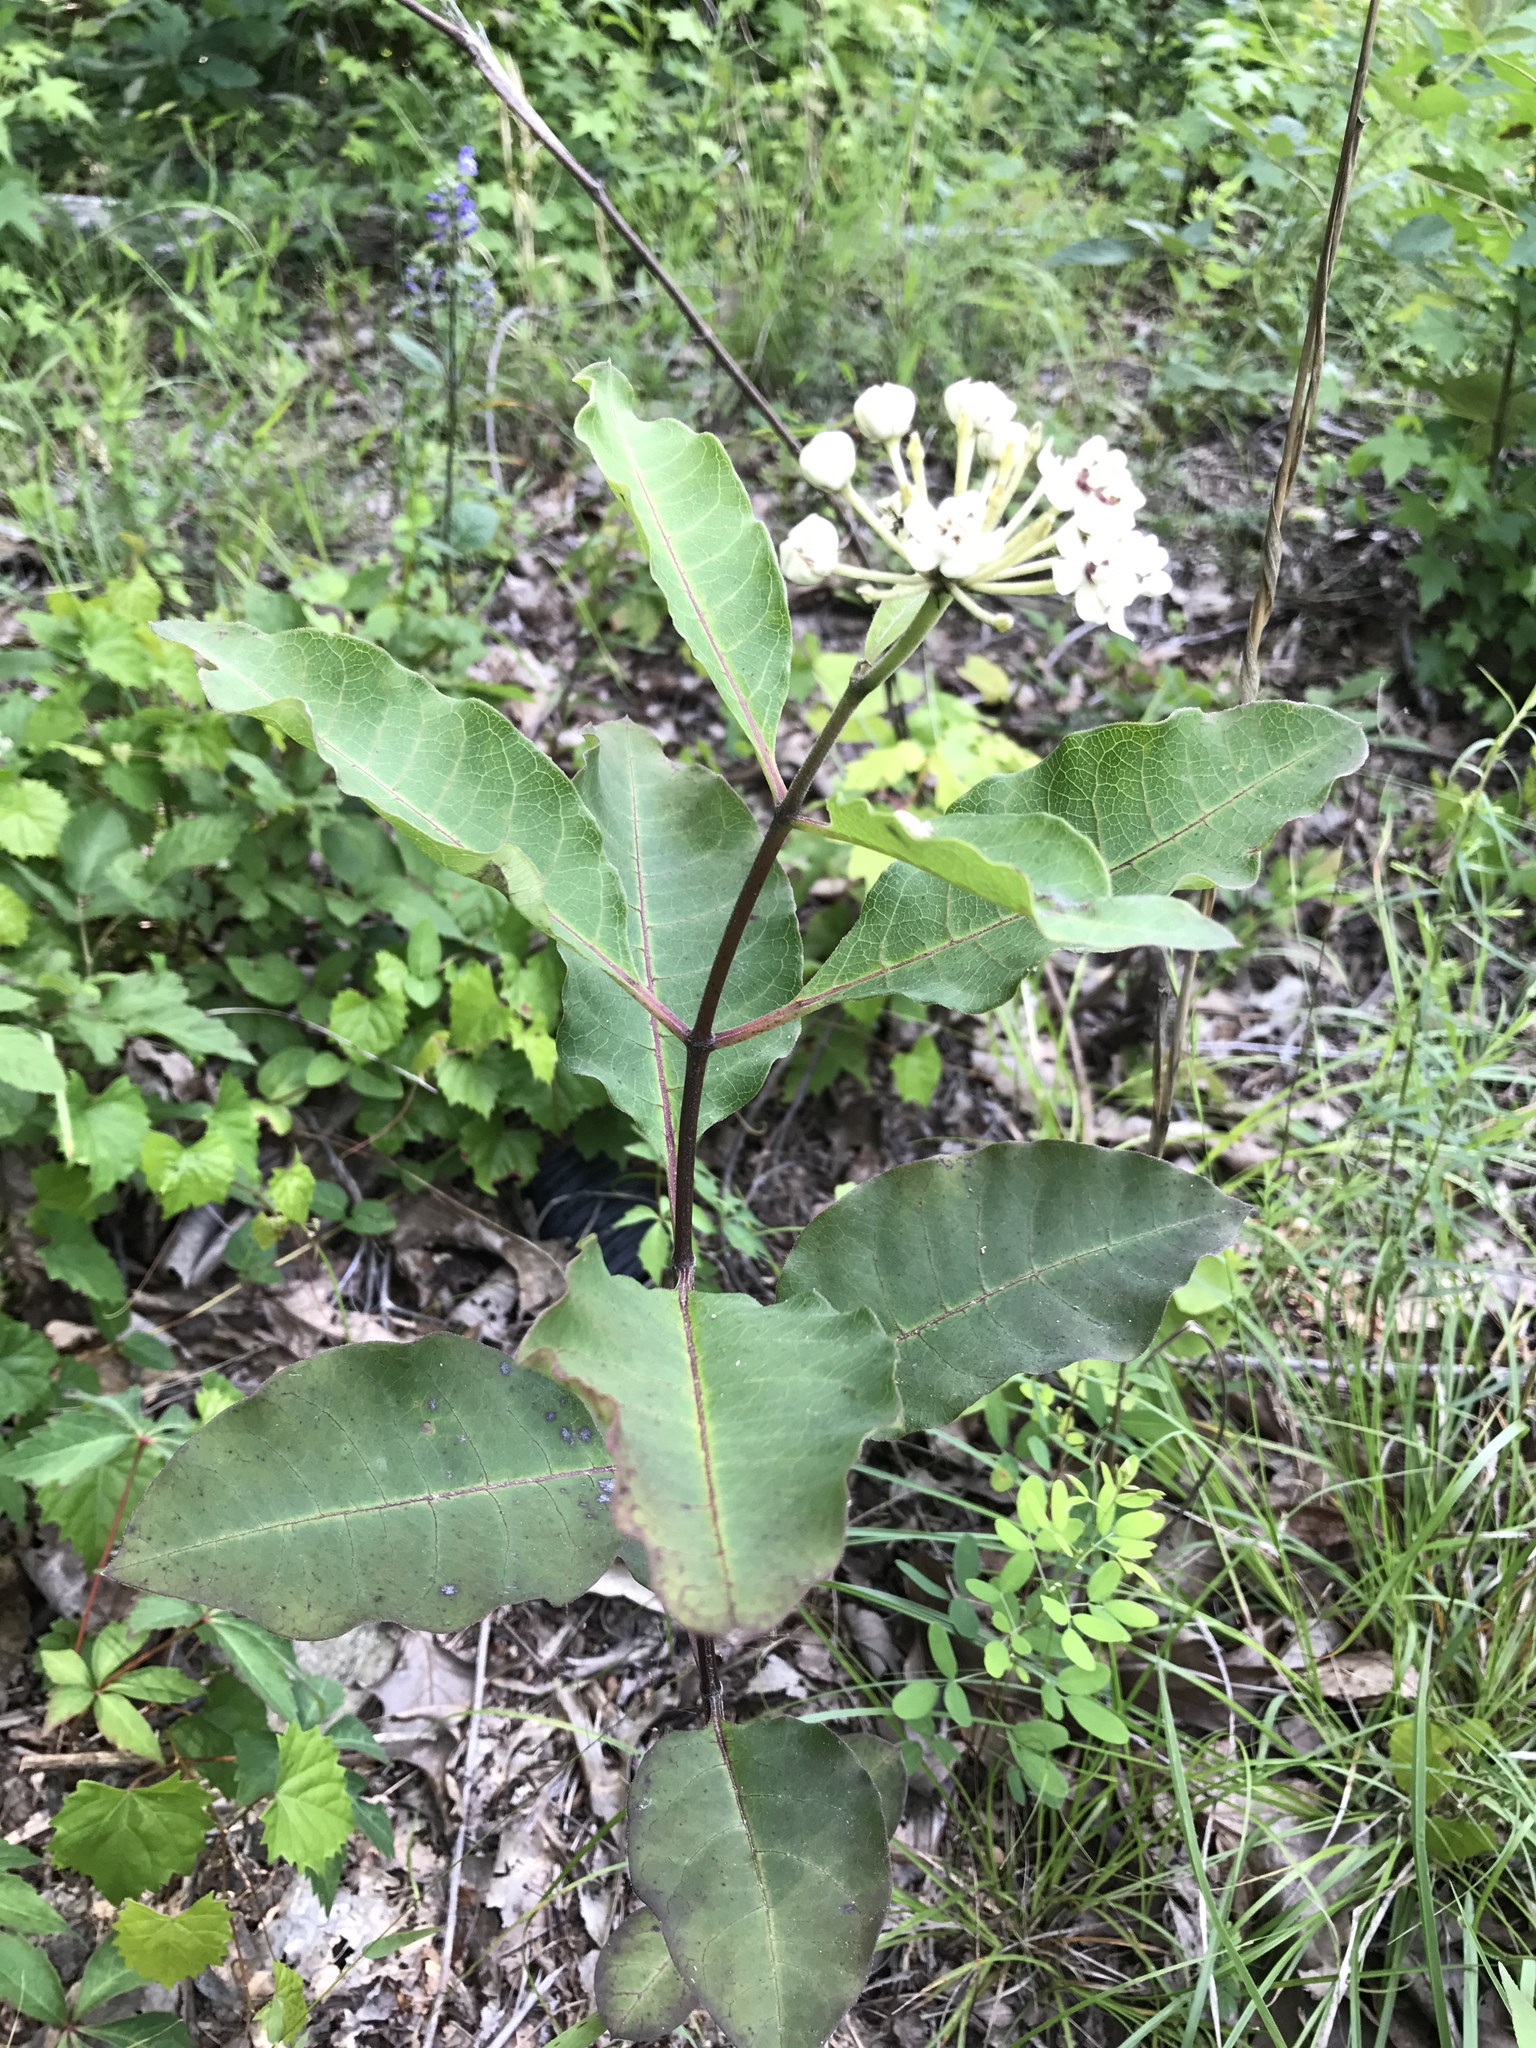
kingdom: Plantae
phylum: Tracheophyta
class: Magnoliopsida
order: Gentianales
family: Apocynaceae
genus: Asclepias
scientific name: Asclepias variegata
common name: Variegated milkweed
